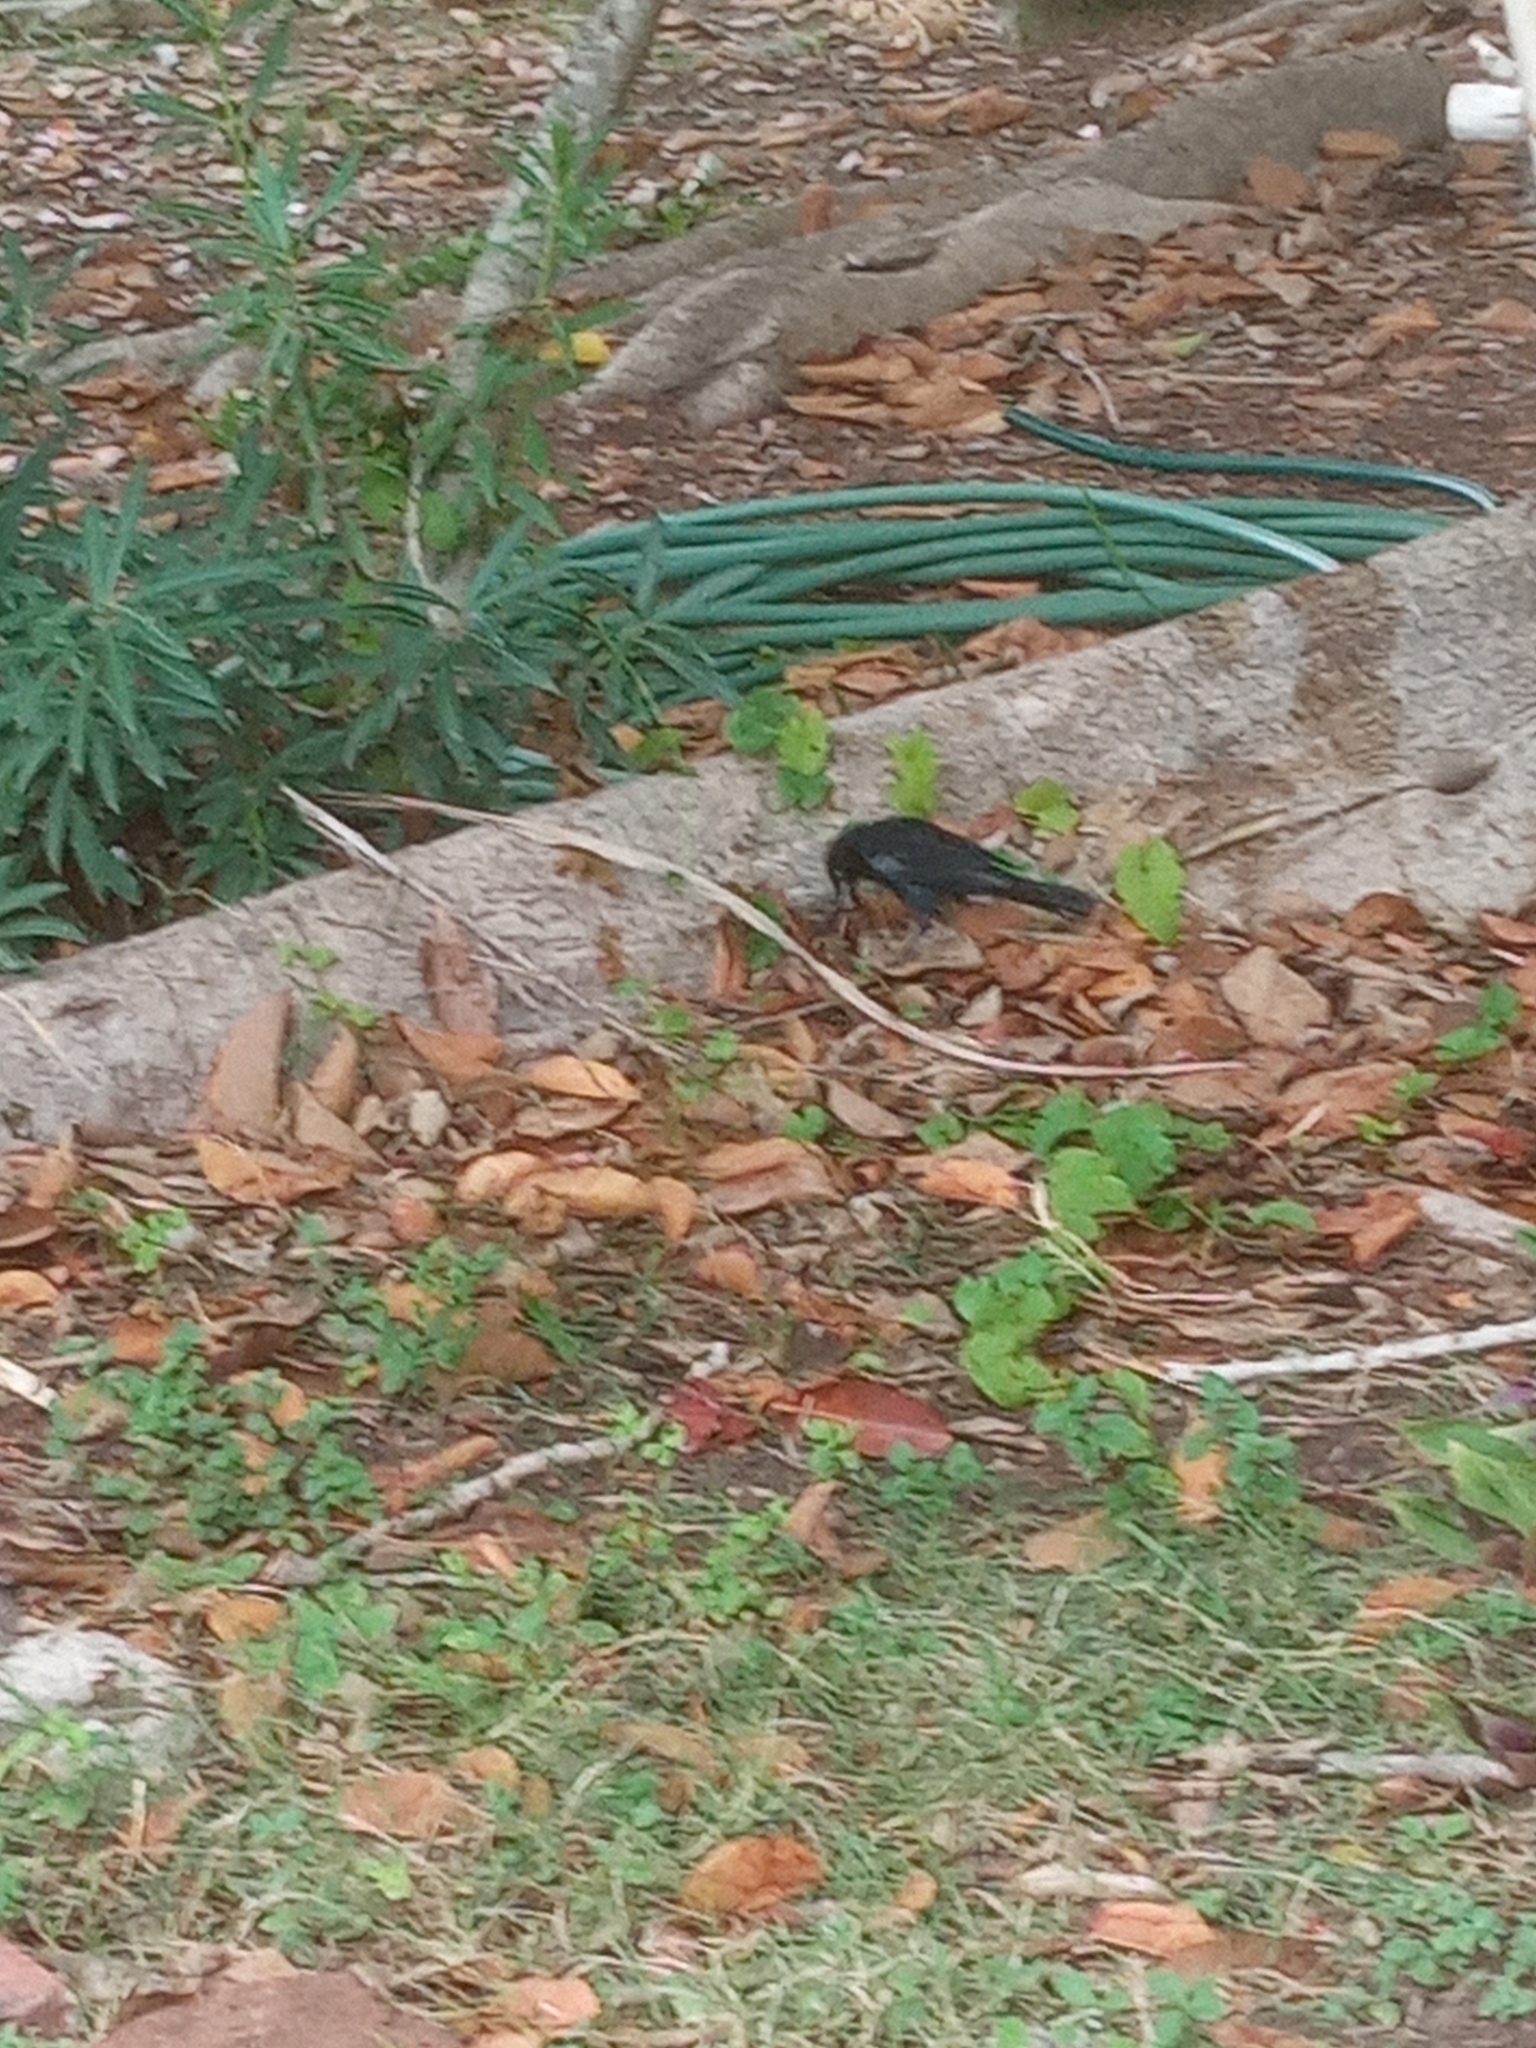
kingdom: Animalia
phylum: Chordata
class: Aves
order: Passeriformes
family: Icteridae
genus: Quiscalus
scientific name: Quiscalus mexicanus
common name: Great-tailed grackle
